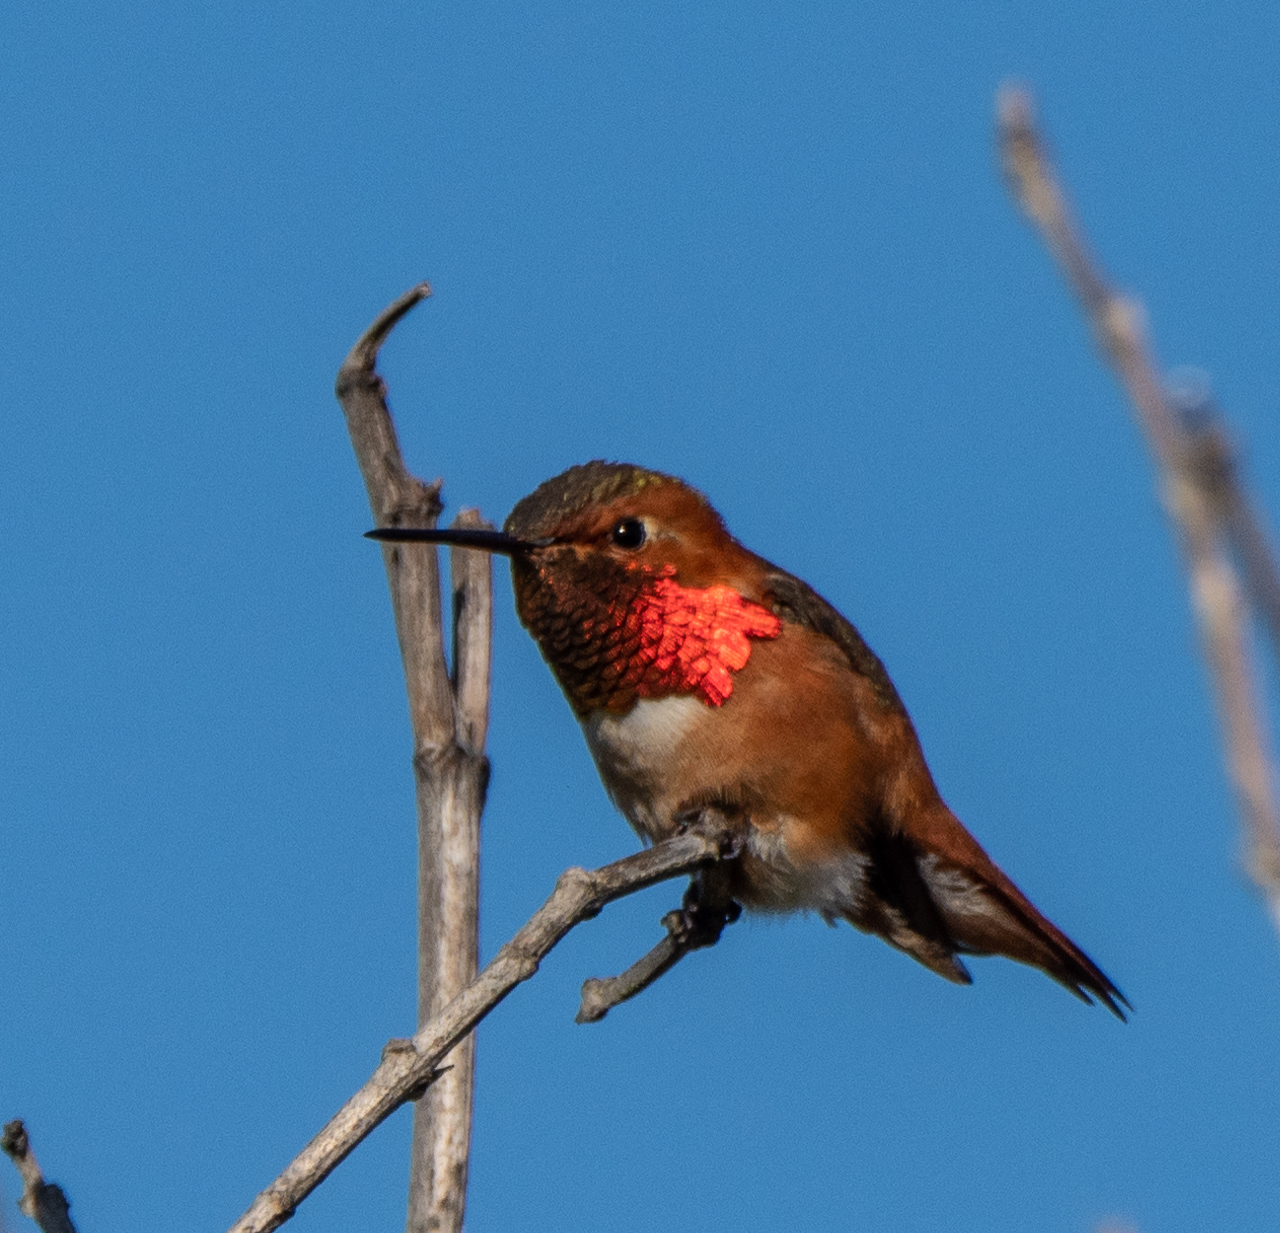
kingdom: Animalia
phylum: Chordata
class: Aves
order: Apodiformes
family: Trochilidae
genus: Selasphorus
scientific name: Selasphorus sasin
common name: Allen's hummingbird
